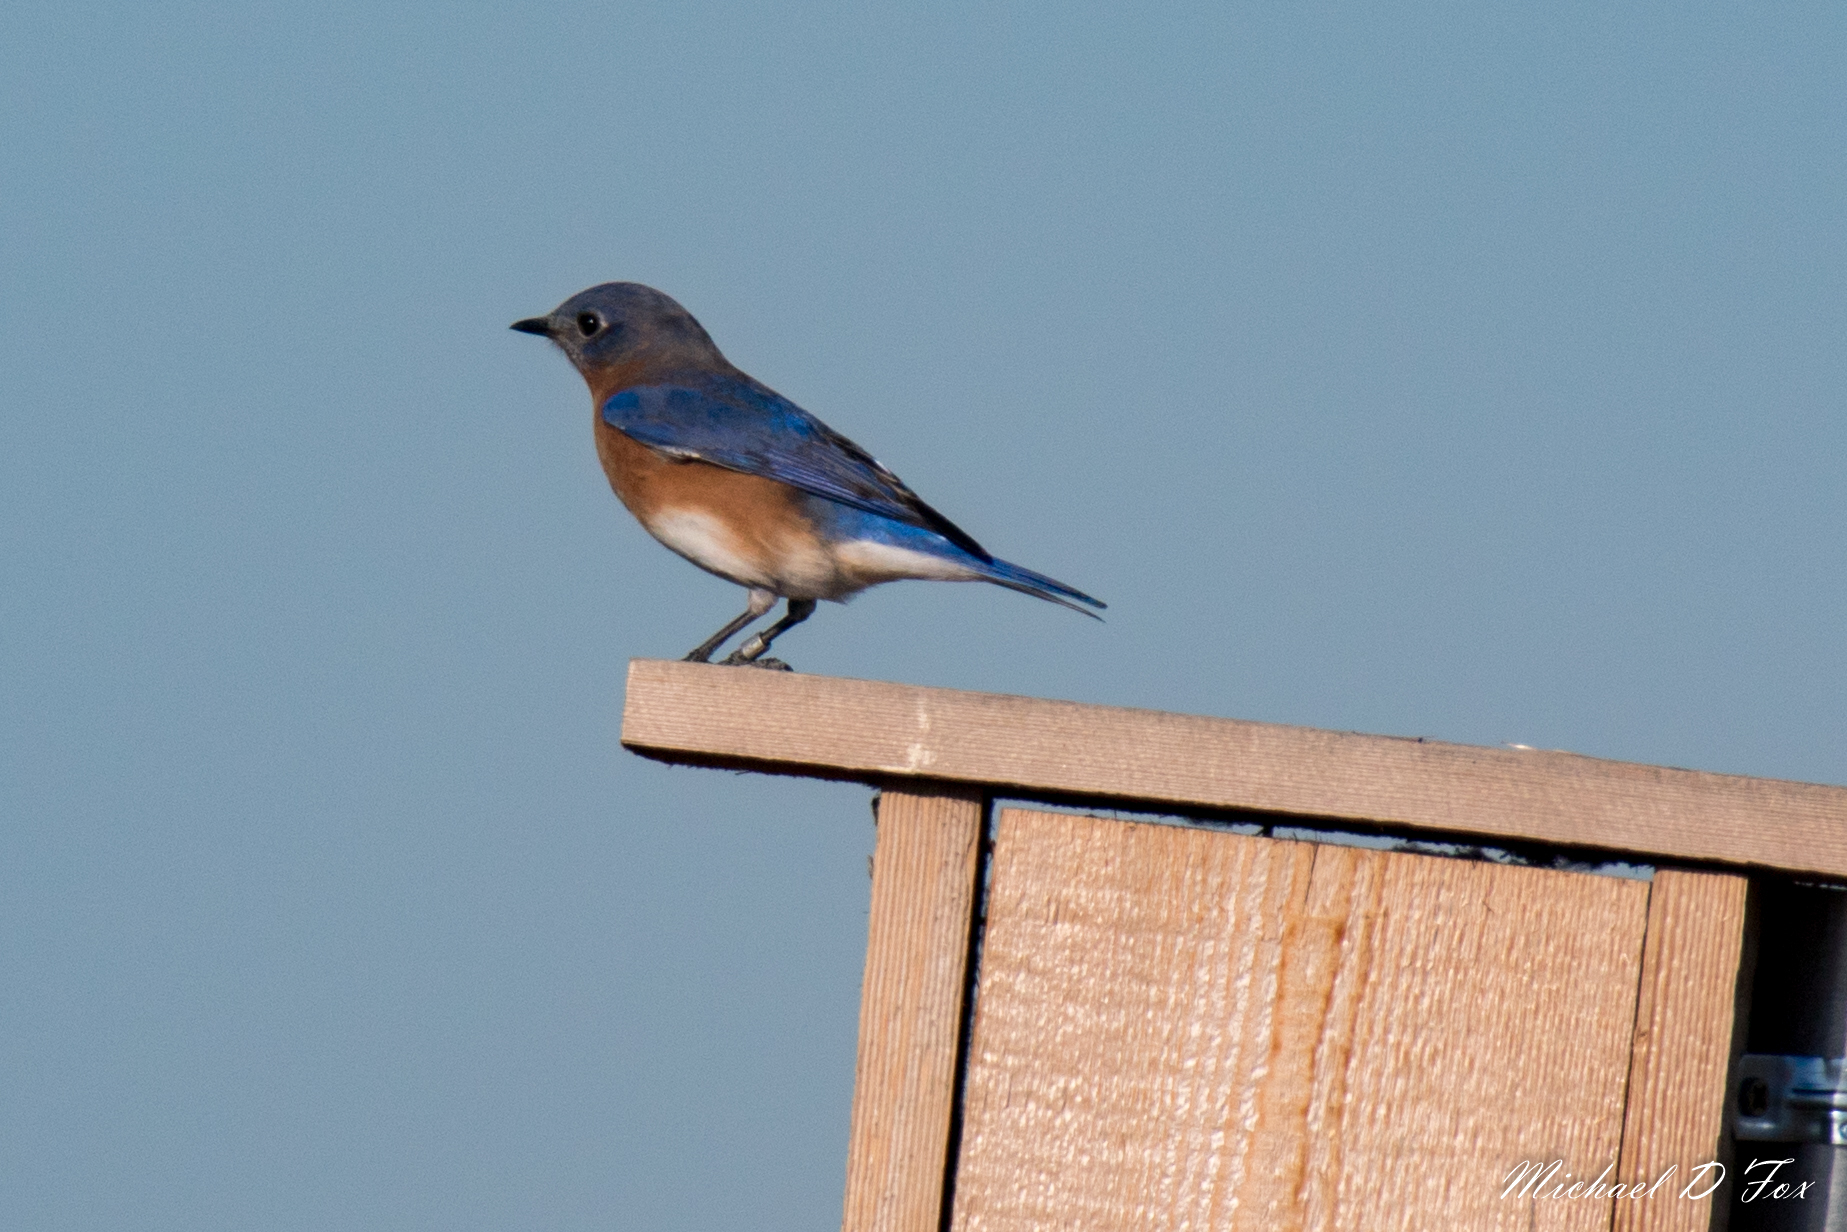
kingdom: Animalia
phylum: Chordata
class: Aves
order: Passeriformes
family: Turdidae
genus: Sialia
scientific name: Sialia sialis
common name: Eastern bluebird
